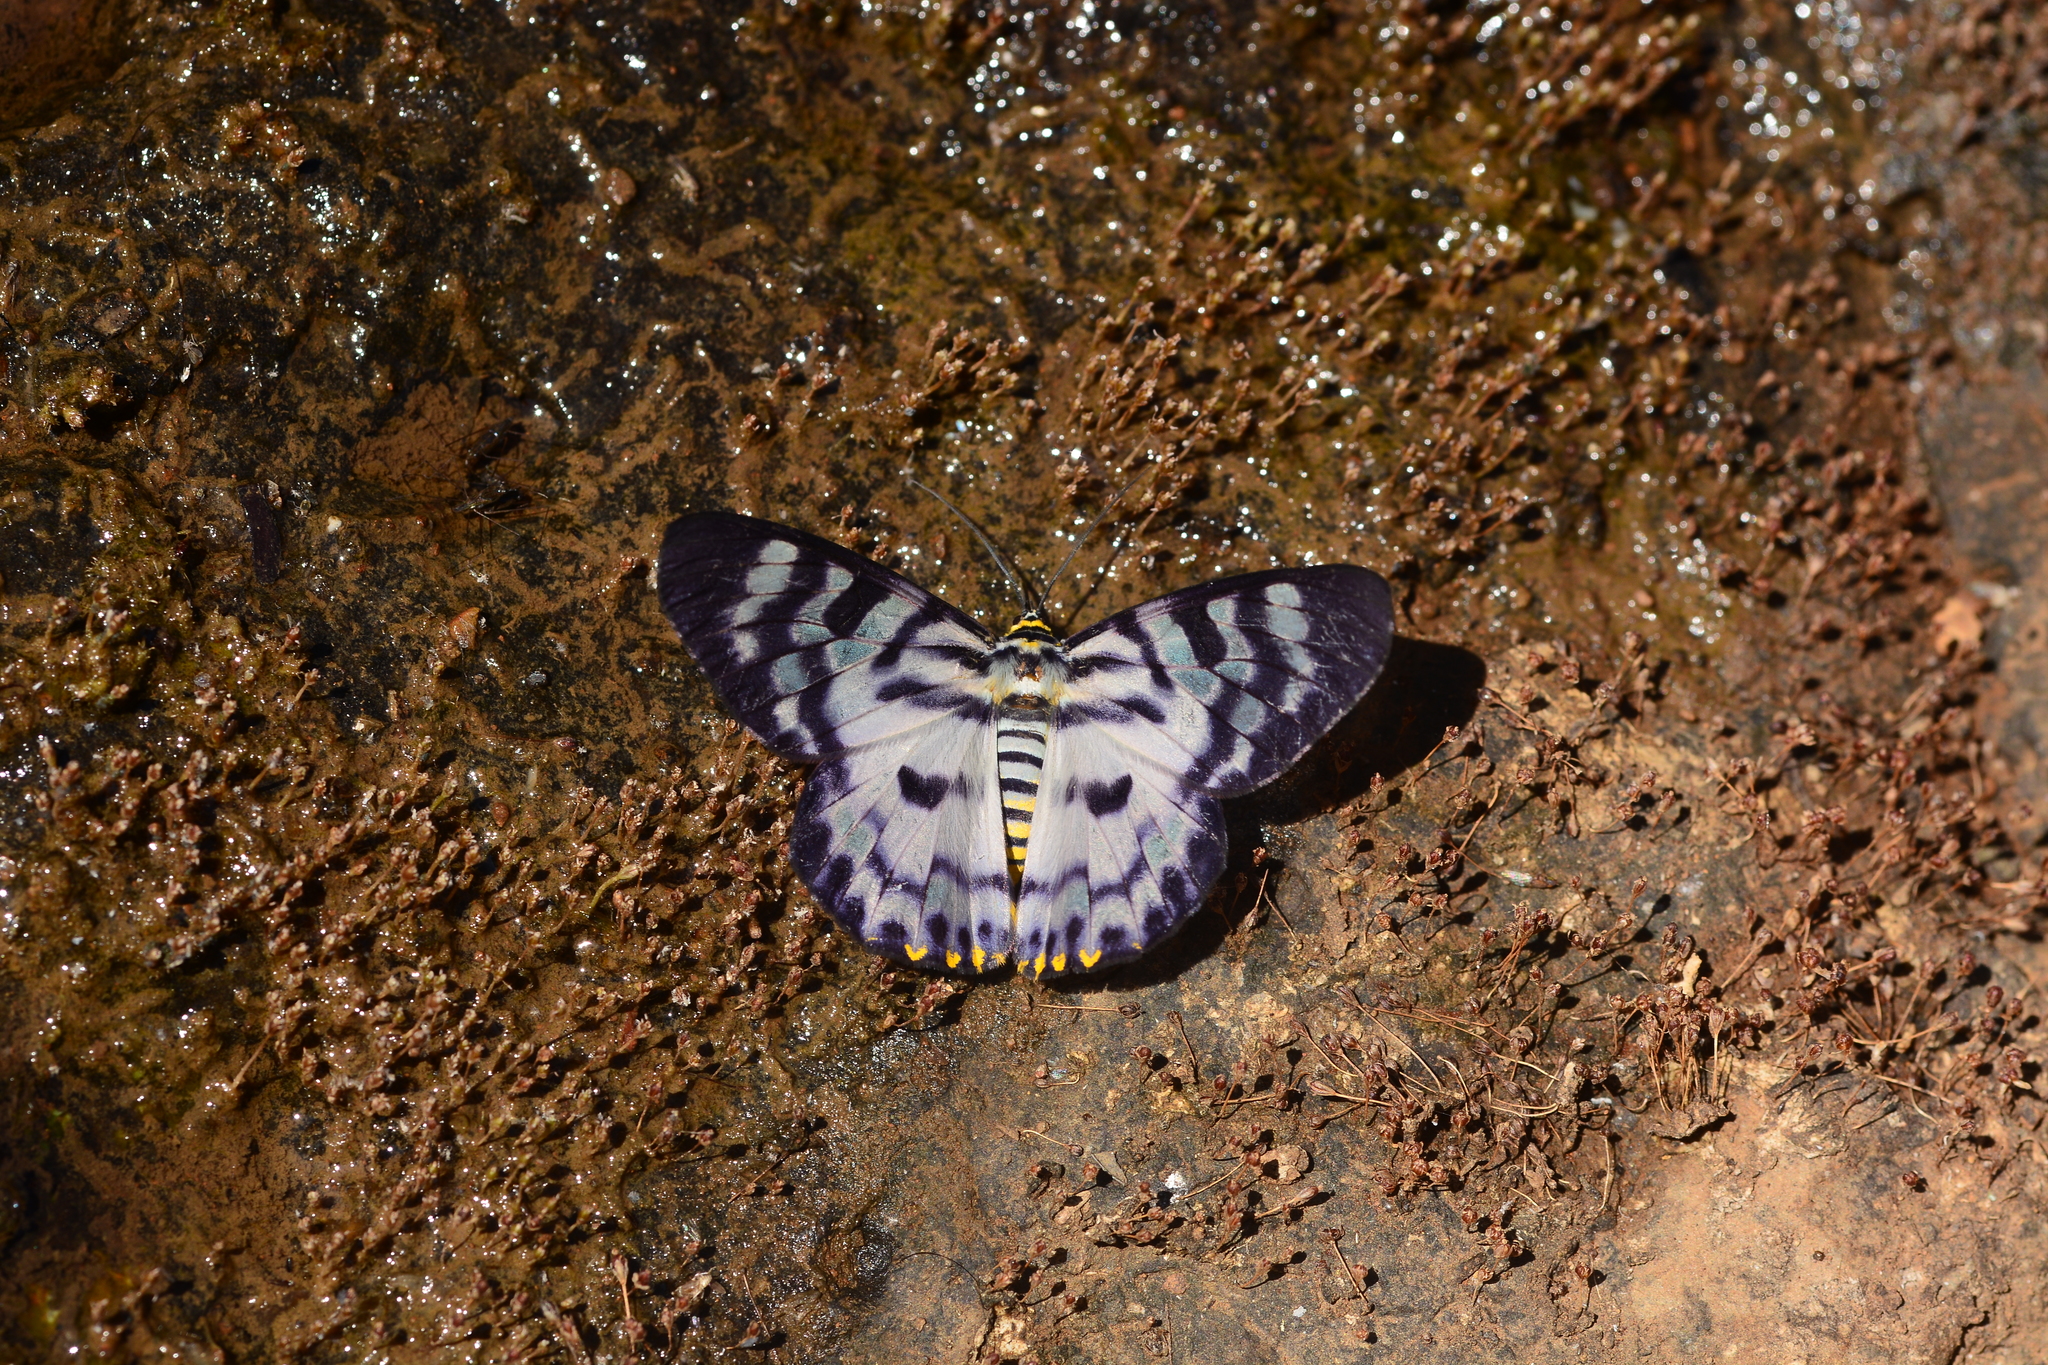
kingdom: Animalia
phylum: Arthropoda
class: Insecta
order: Lepidoptera
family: Geometridae
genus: Dysphania
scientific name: Dysphania nelera
